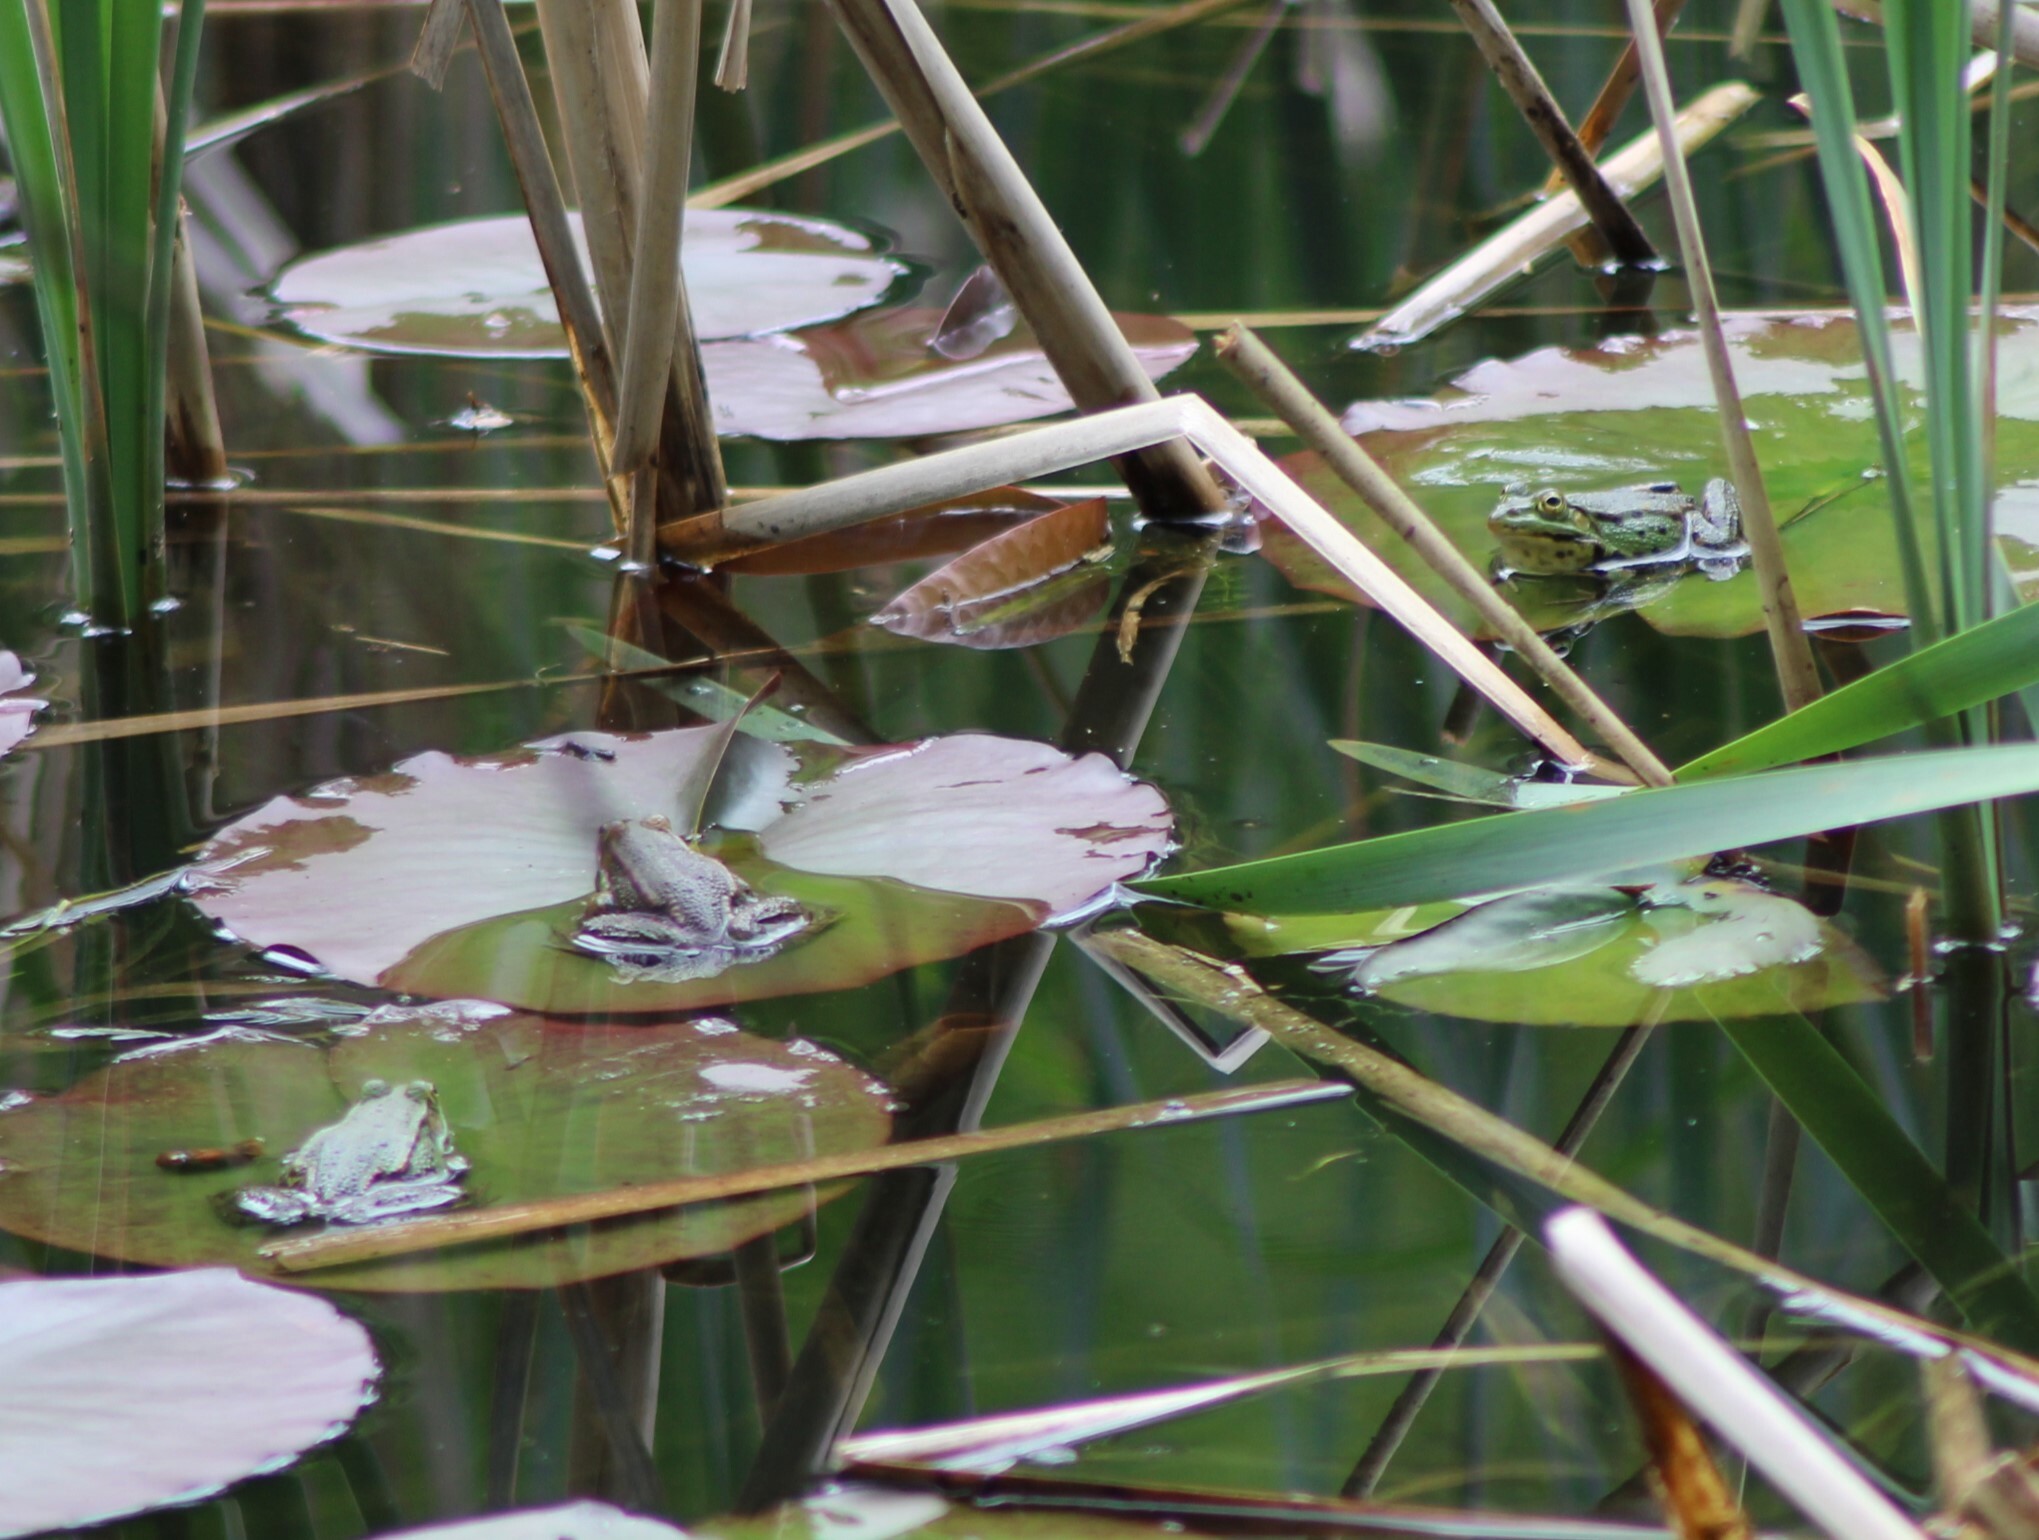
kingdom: Animalia
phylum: Chordata
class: Amphibia
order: Anura
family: Ranidae
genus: Pelophylax
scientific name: Pelophylax
